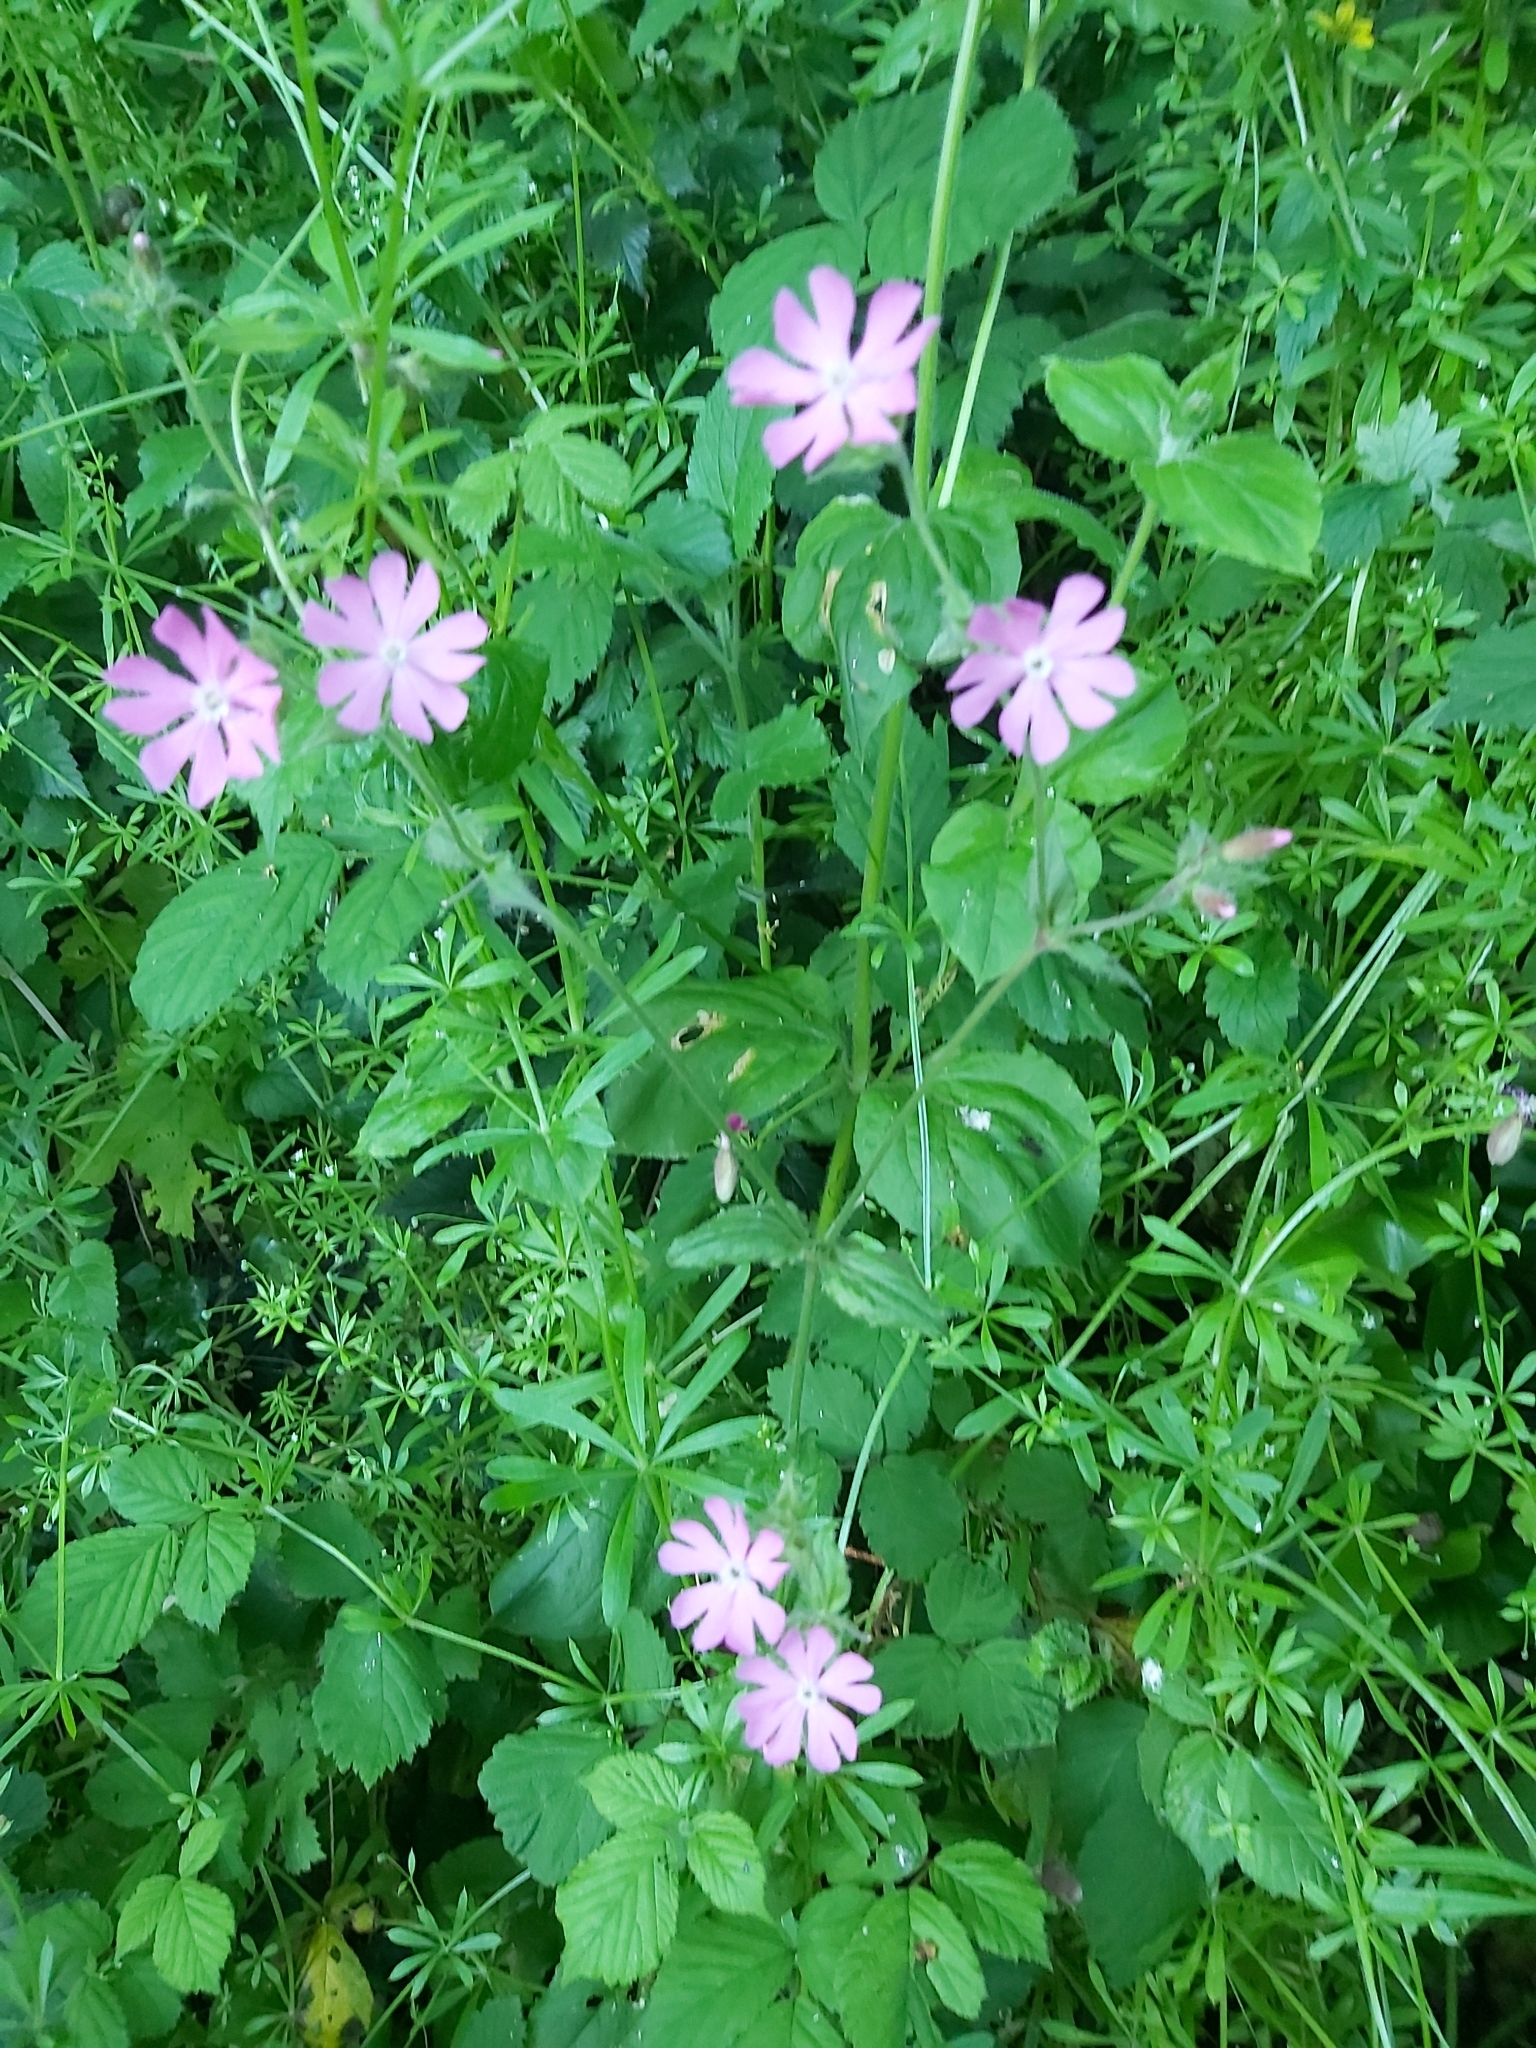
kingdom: Plantae
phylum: Tracheophyta
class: Magnoliopsida
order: Caryophyllales
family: Caryophyllaceae
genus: Silene
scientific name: Silene hampeana
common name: Catchfly
